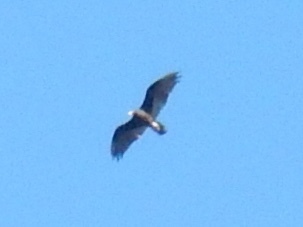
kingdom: Animalia
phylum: Chordata
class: Aves
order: Accipitriformes
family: Cathartidae
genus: Cathartes
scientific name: Cathartes aura
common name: Turkey vulture
